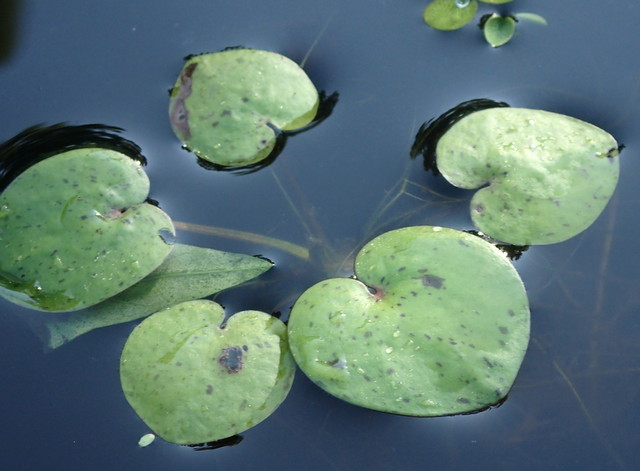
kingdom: Plantae
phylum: Tracheophyta
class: Liliopsida
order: Alismatales
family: Hydrocharitaceae
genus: Hydrocharis
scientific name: Hydrocharis spongia
